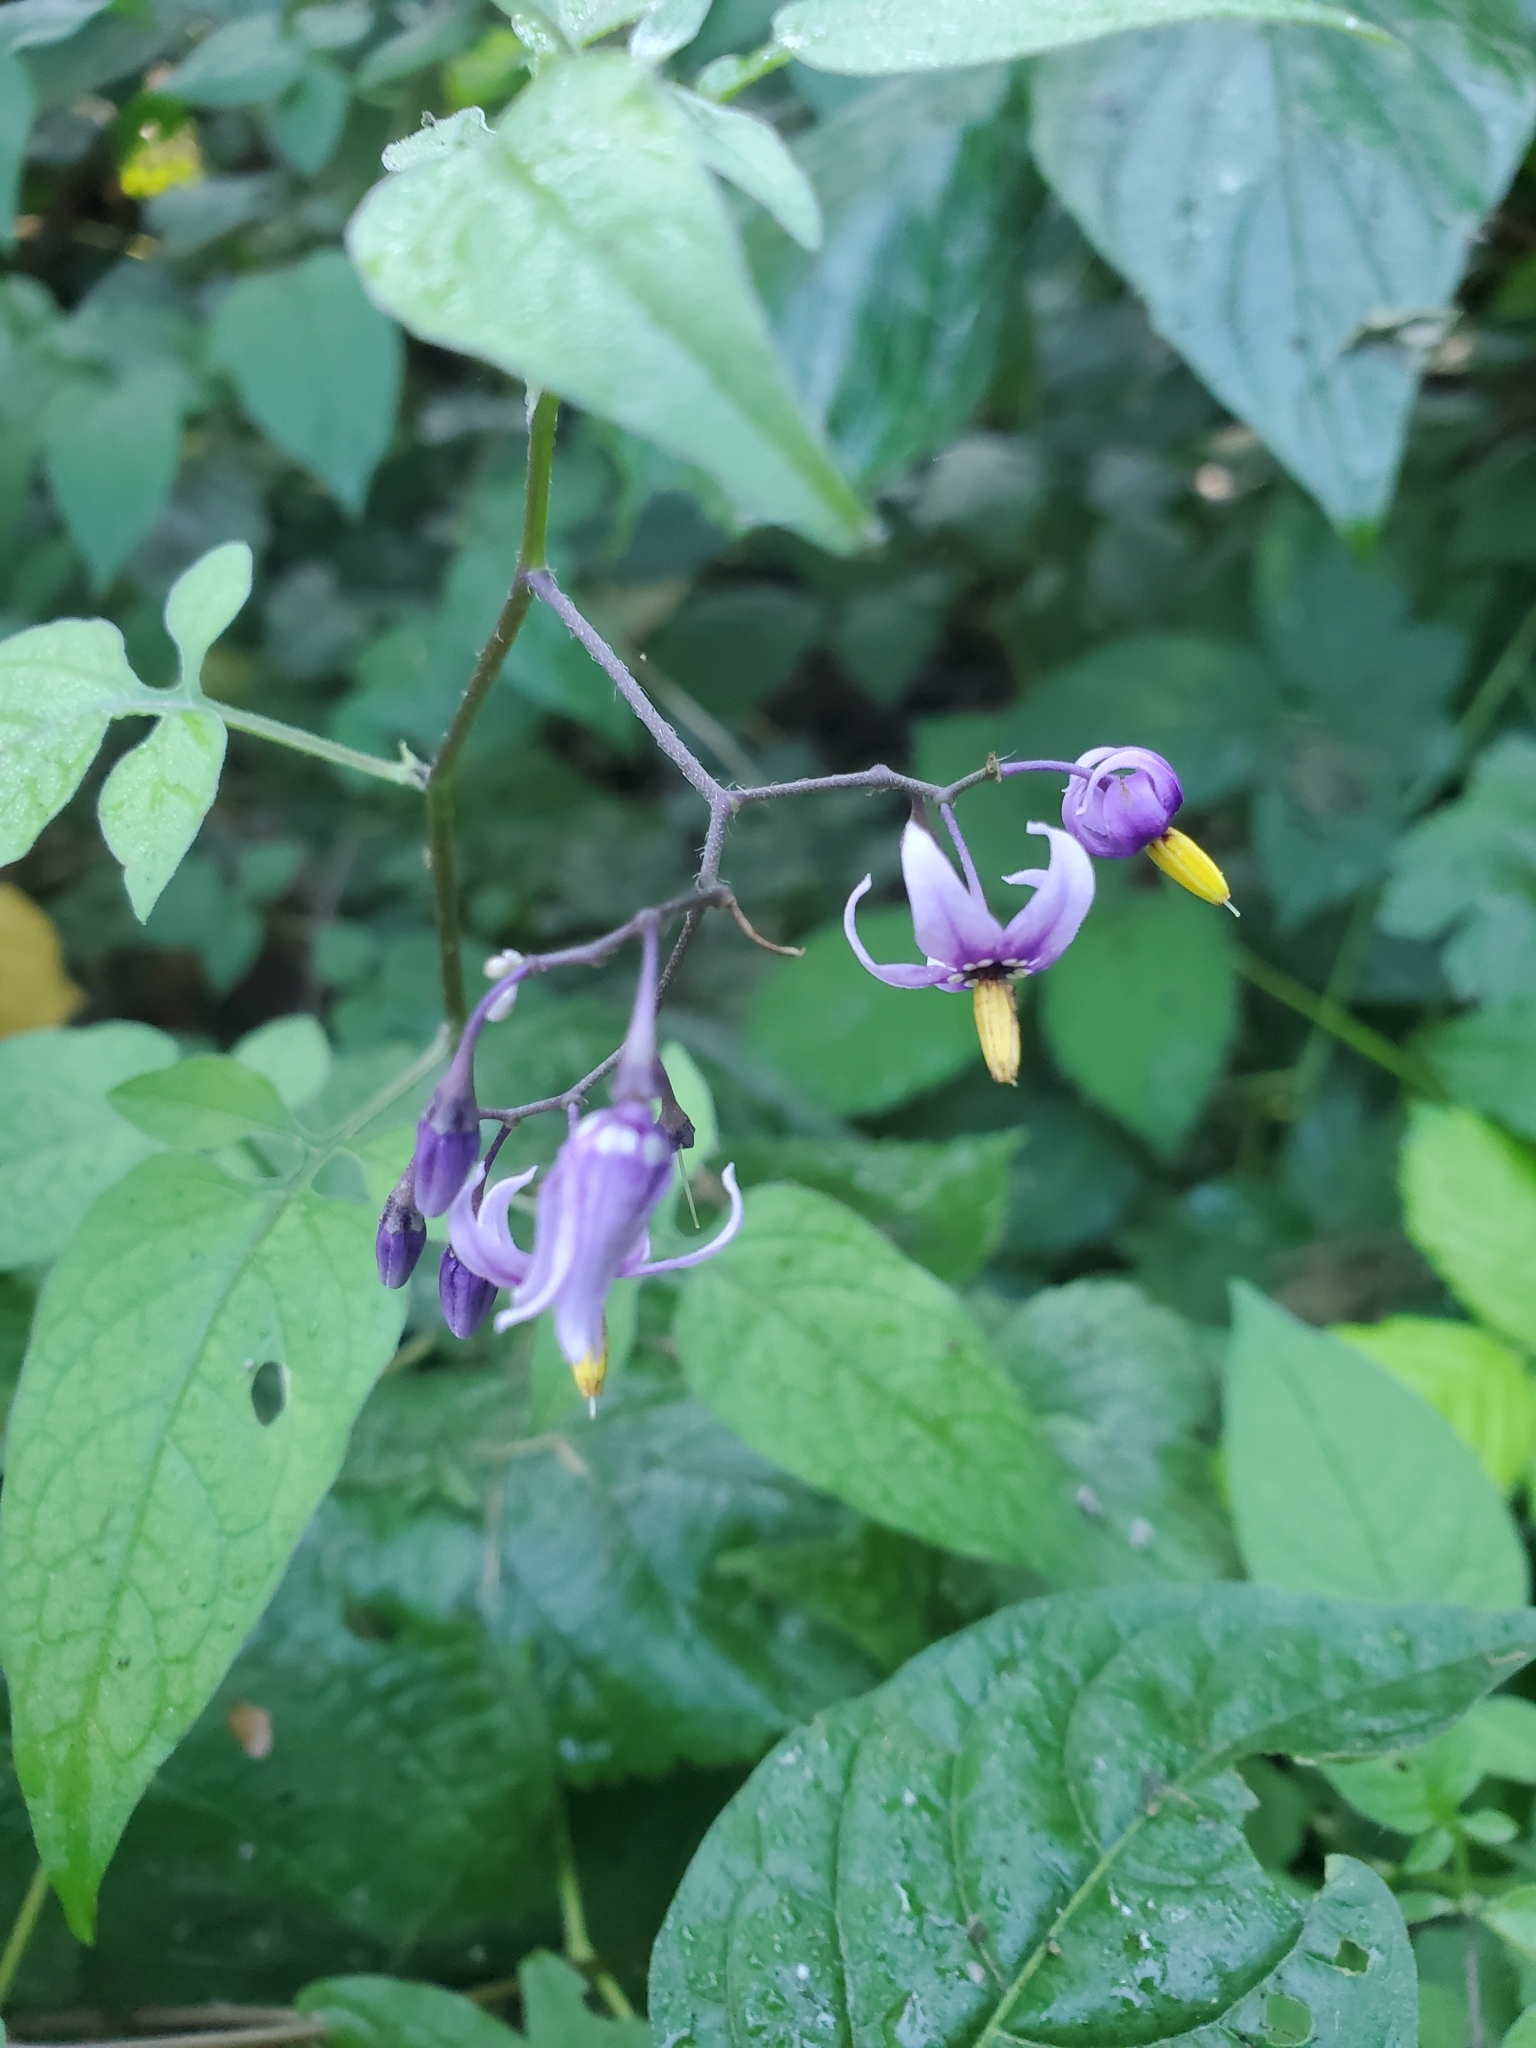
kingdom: Plantae
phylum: Tracheophyta
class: Magnoliopsida
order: Solanales
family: Solanaceae
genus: Solanum
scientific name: Solanum dulcamara
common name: Climbing nightshade
